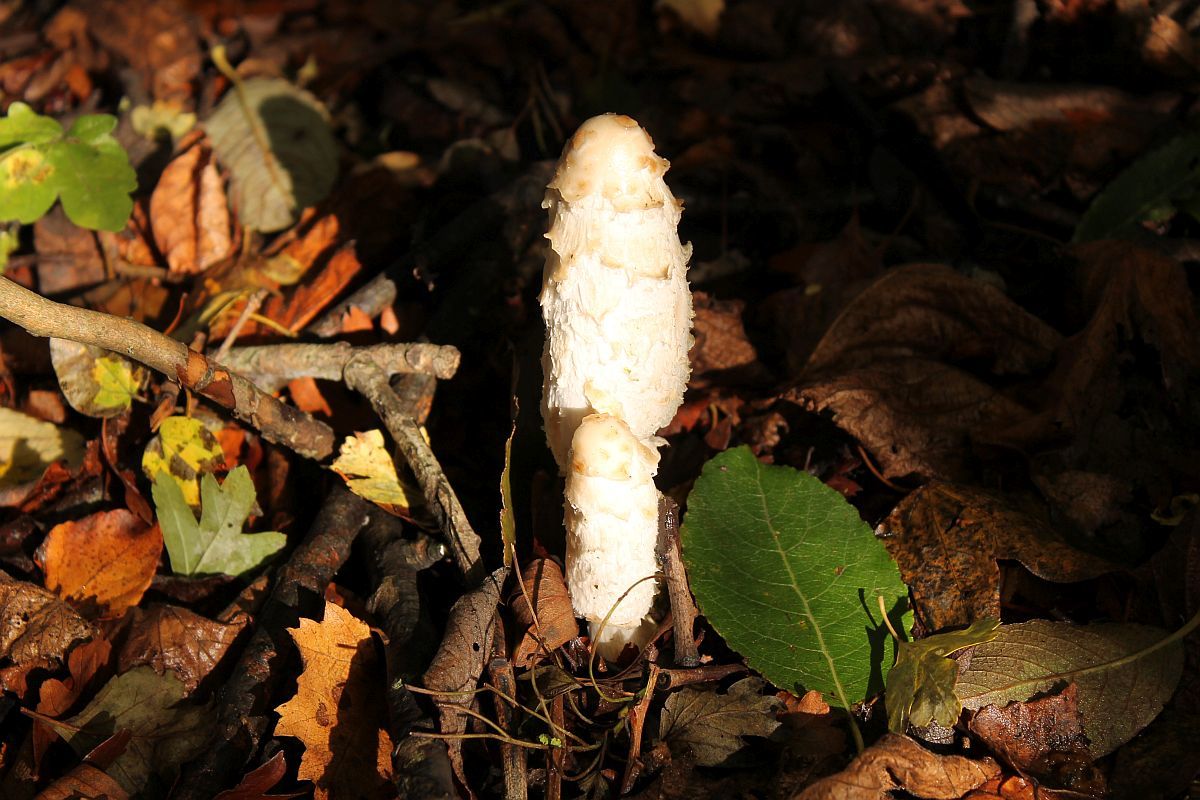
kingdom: Fungi
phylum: Basidiomycota
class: Agaricomycetes
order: Agaricales
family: Agaricaceae
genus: Coprinus
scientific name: Coprinus comatus
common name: Lawyer's wig
